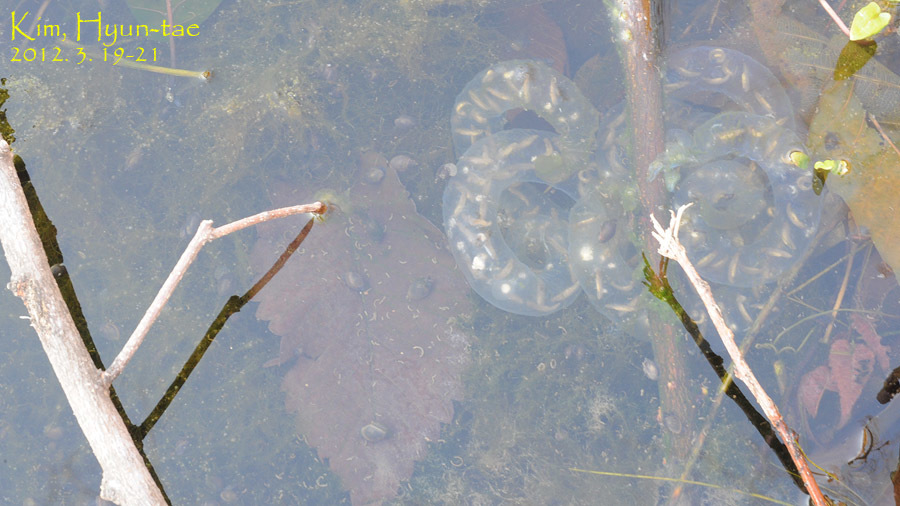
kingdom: Animalia
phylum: Chordata
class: Amphibia
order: Caudata
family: Hynobiidae
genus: Hynobius
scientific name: Hynobius leechii
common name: Gensan salamander
